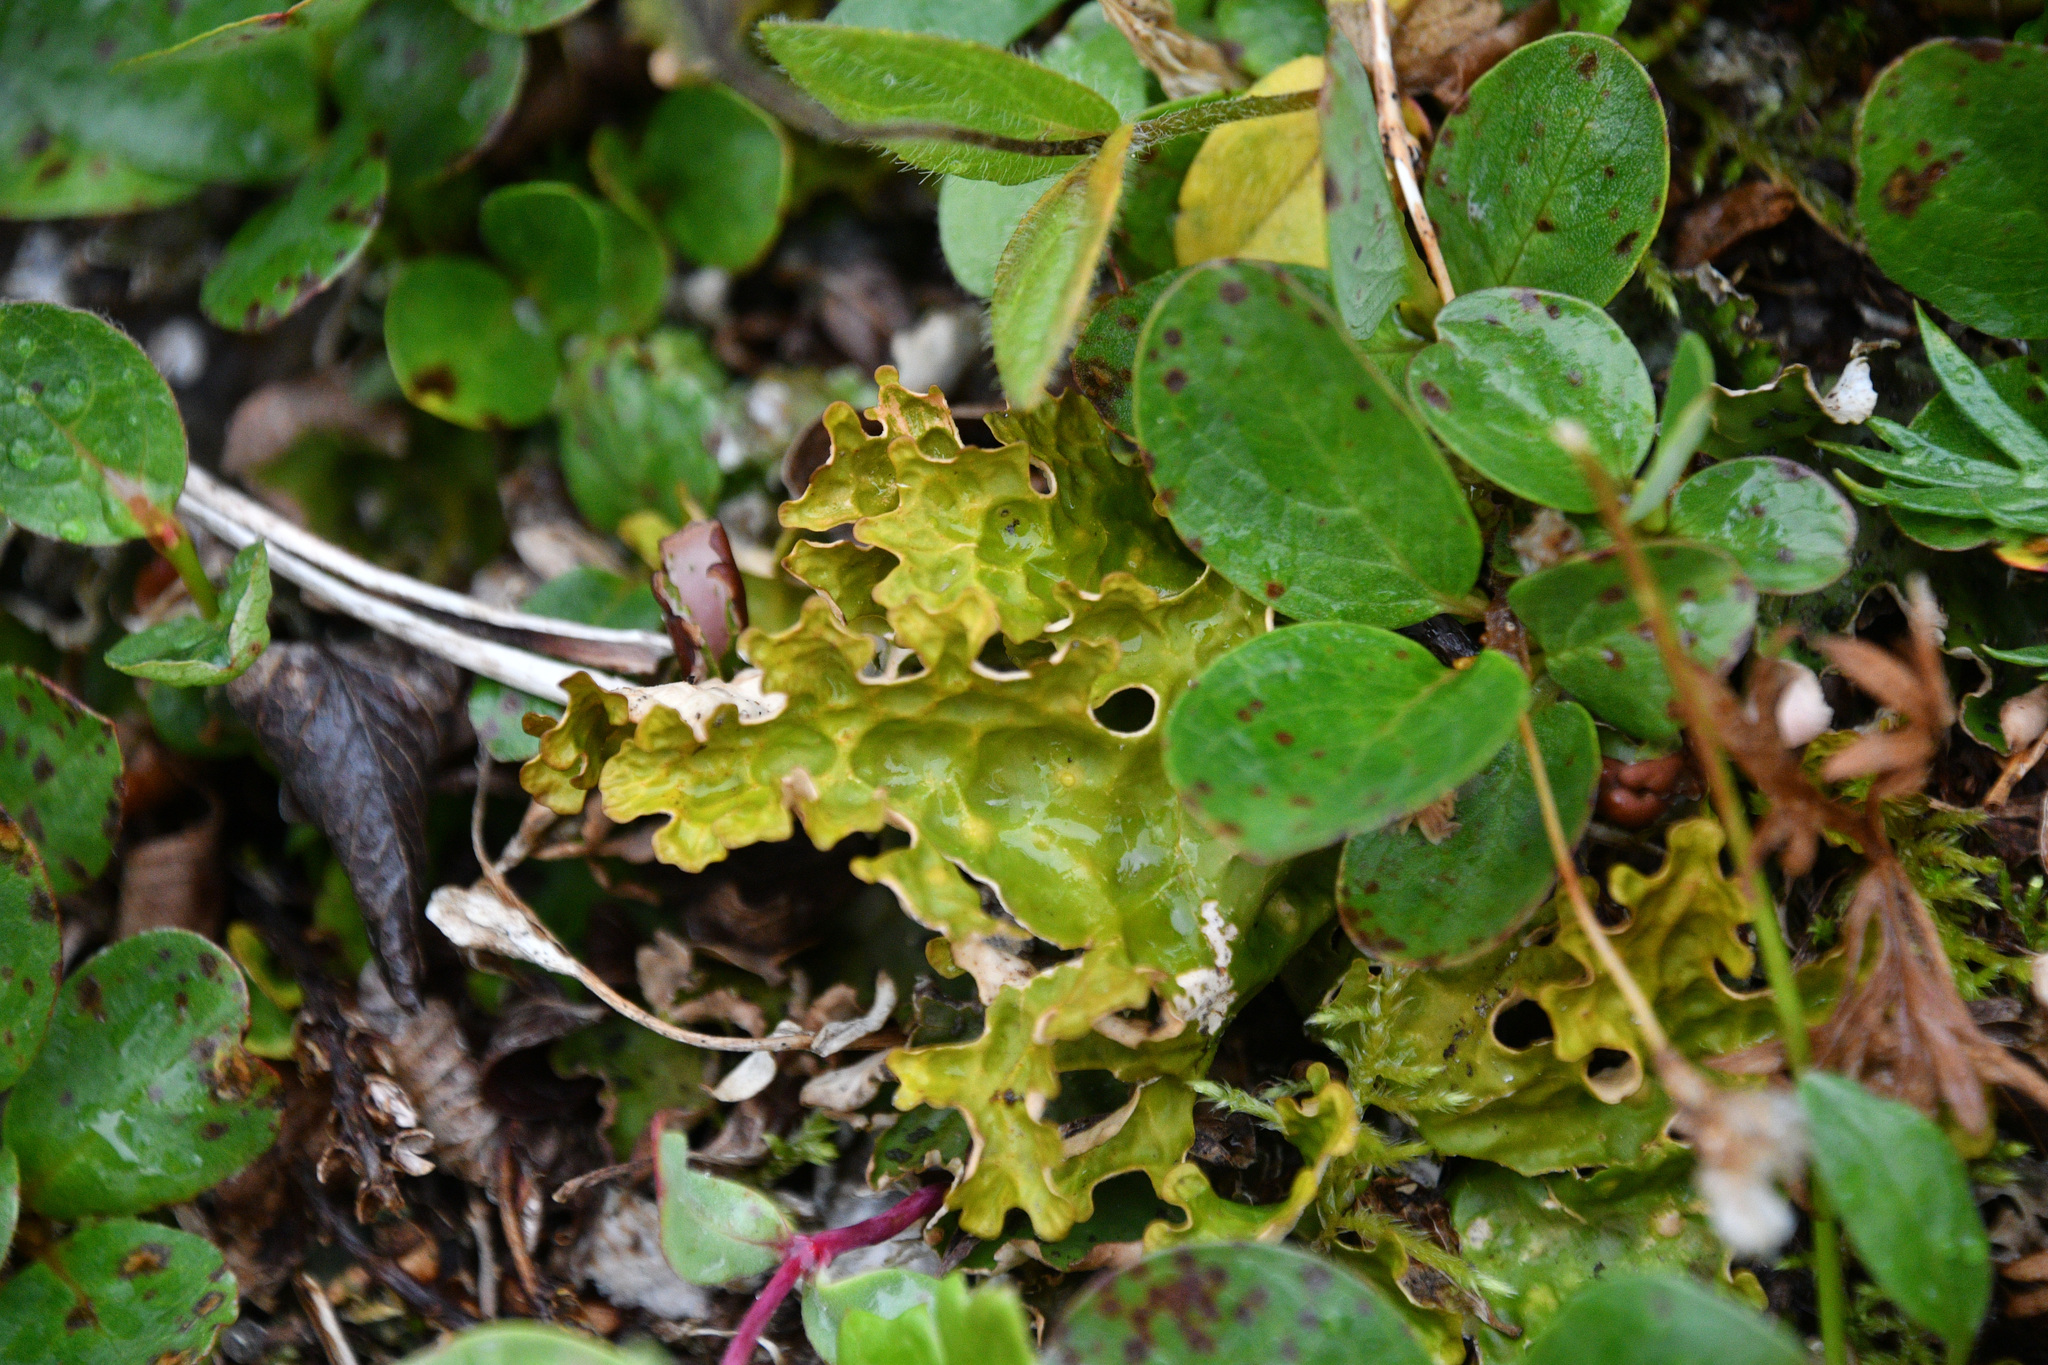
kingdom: Fungi
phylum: Ascomycota
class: Lecanoromycetes
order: Peltigerales
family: Lobariaceae
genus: Lobaria
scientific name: Lobaria linita
